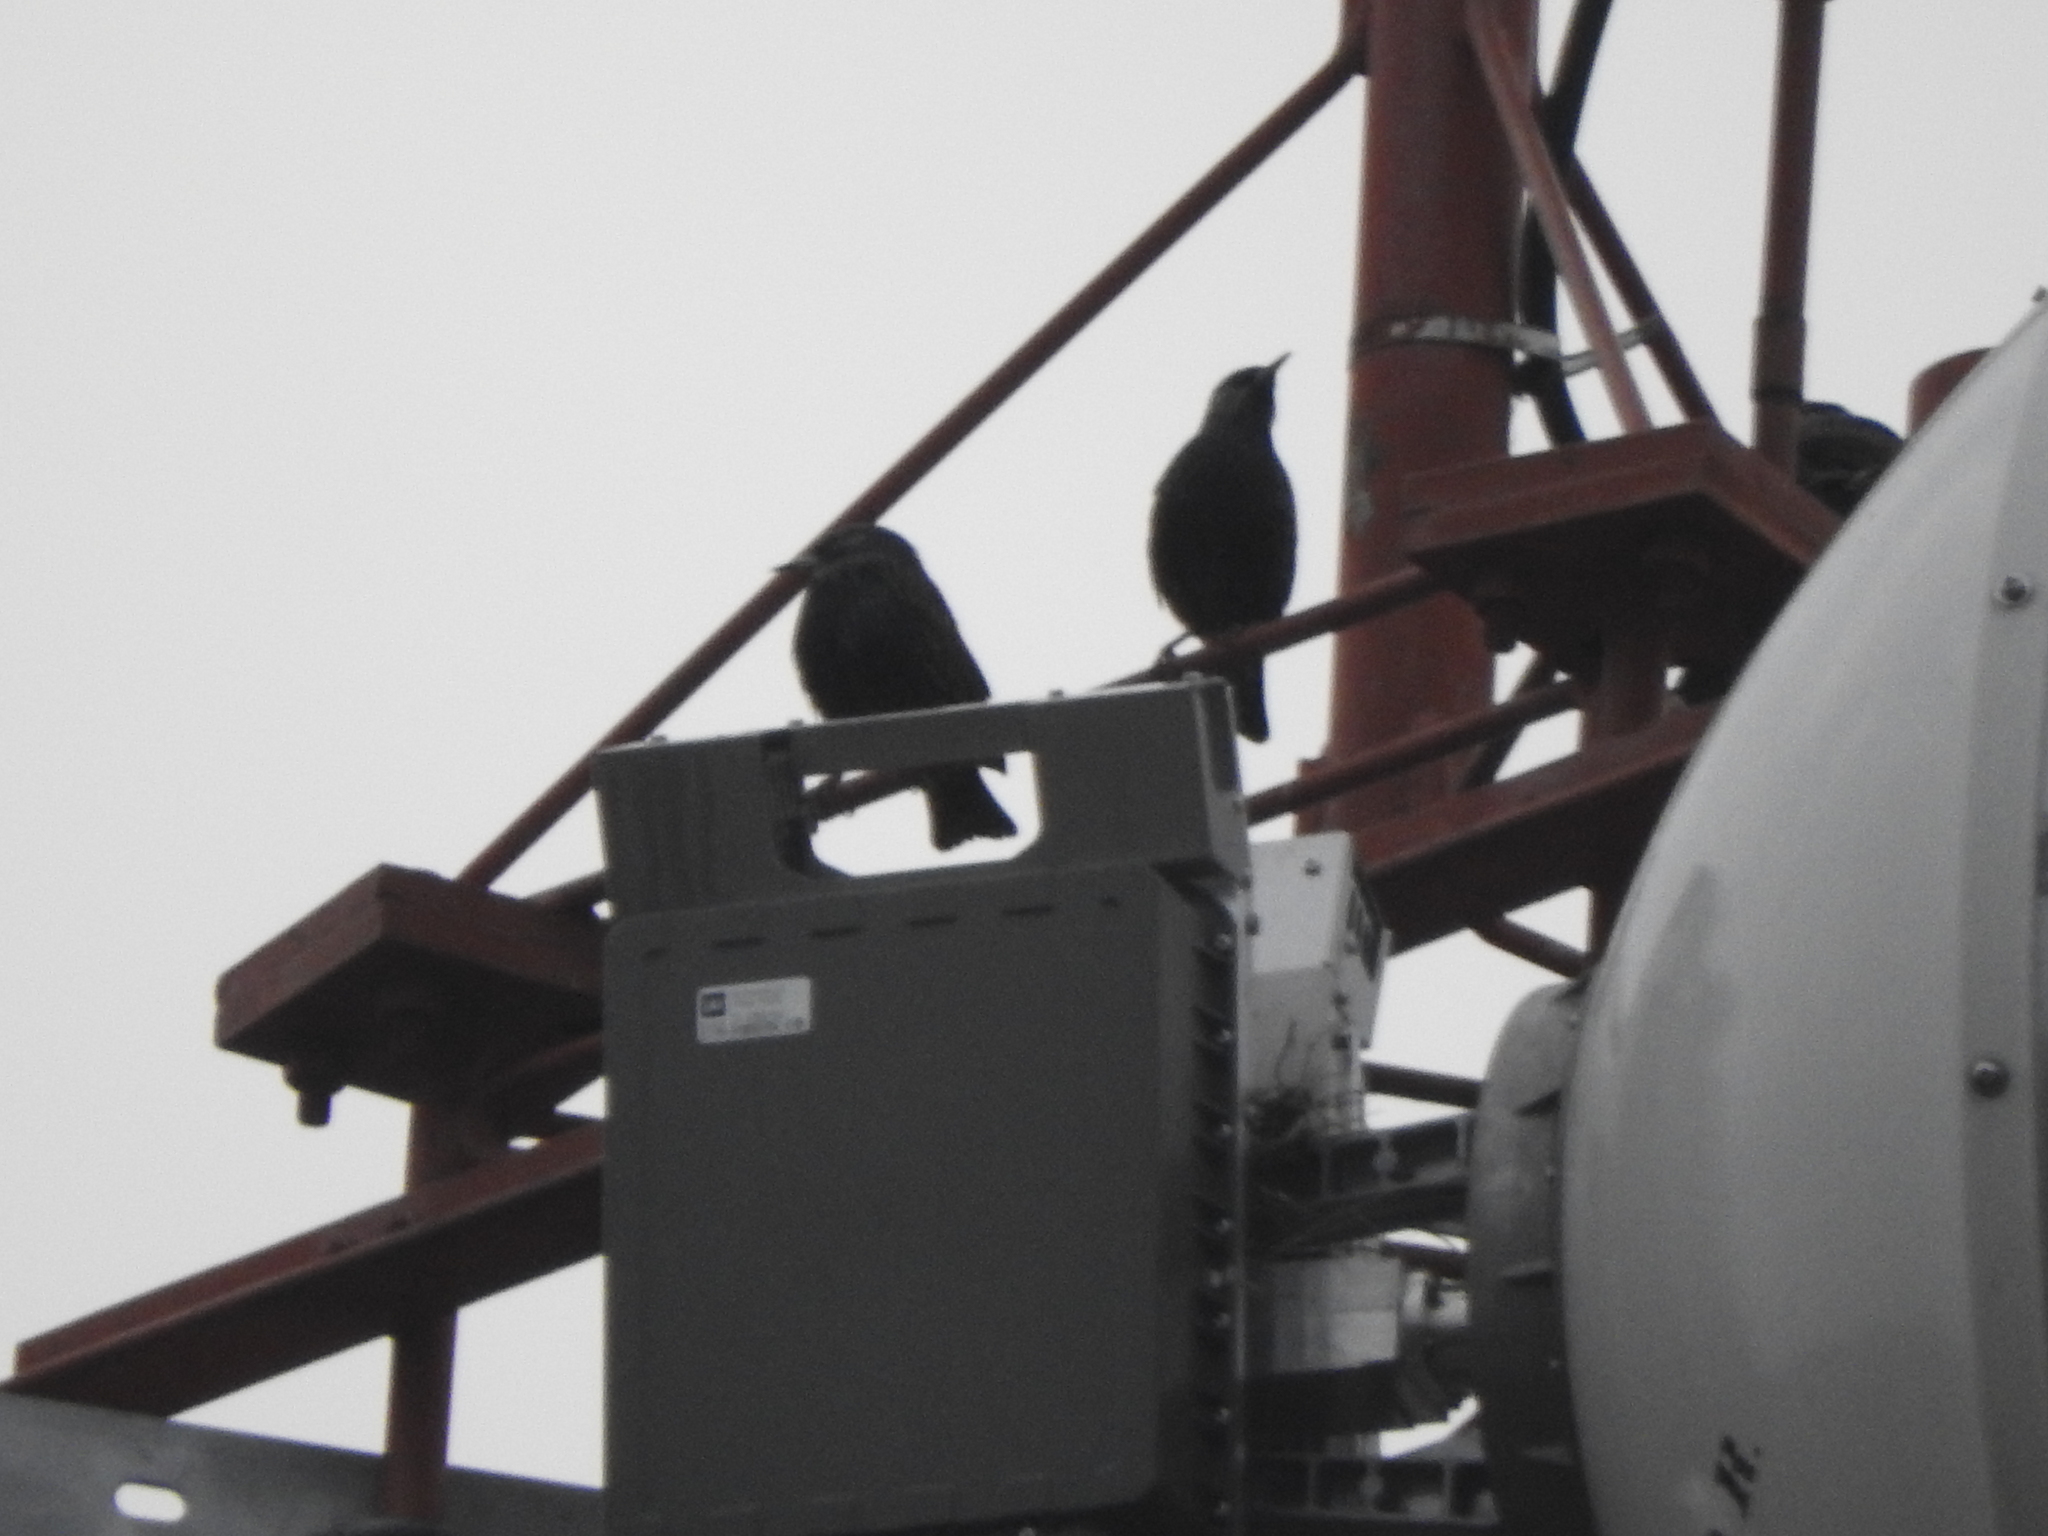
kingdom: Animalia
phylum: Chordata
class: Aves
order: Passeriformes
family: Sturnidae
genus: Sturnus
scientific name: Sturnus vulgaris
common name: Common starling
